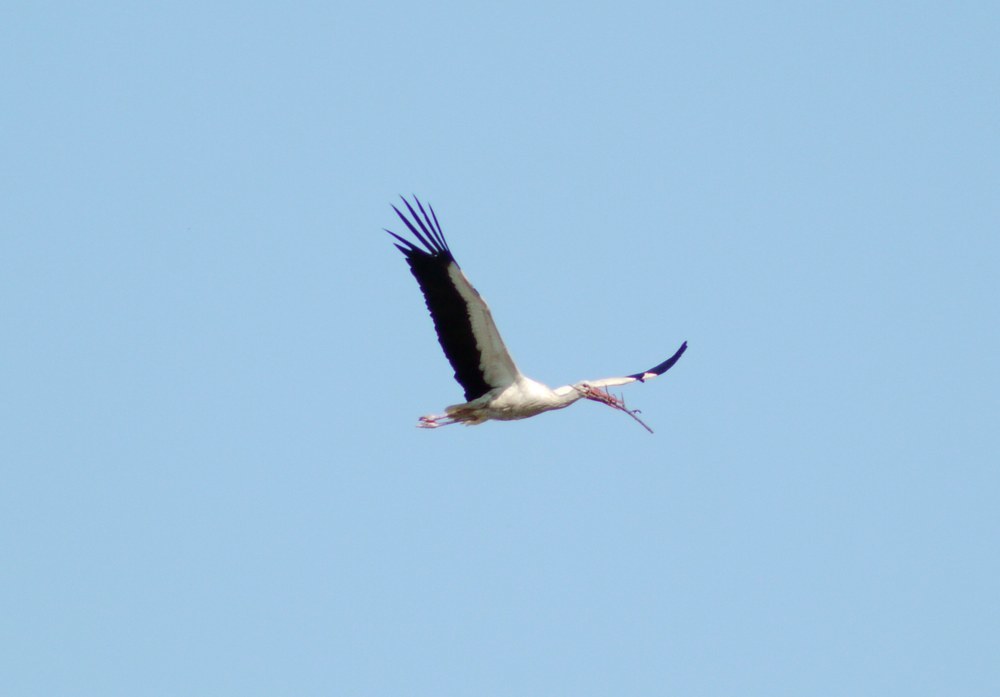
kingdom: Animalia
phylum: Chordata
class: Aves
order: Ciconiiformes
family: Ciconiidae
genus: Ciconia
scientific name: Ciconia ciconia
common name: White stork
